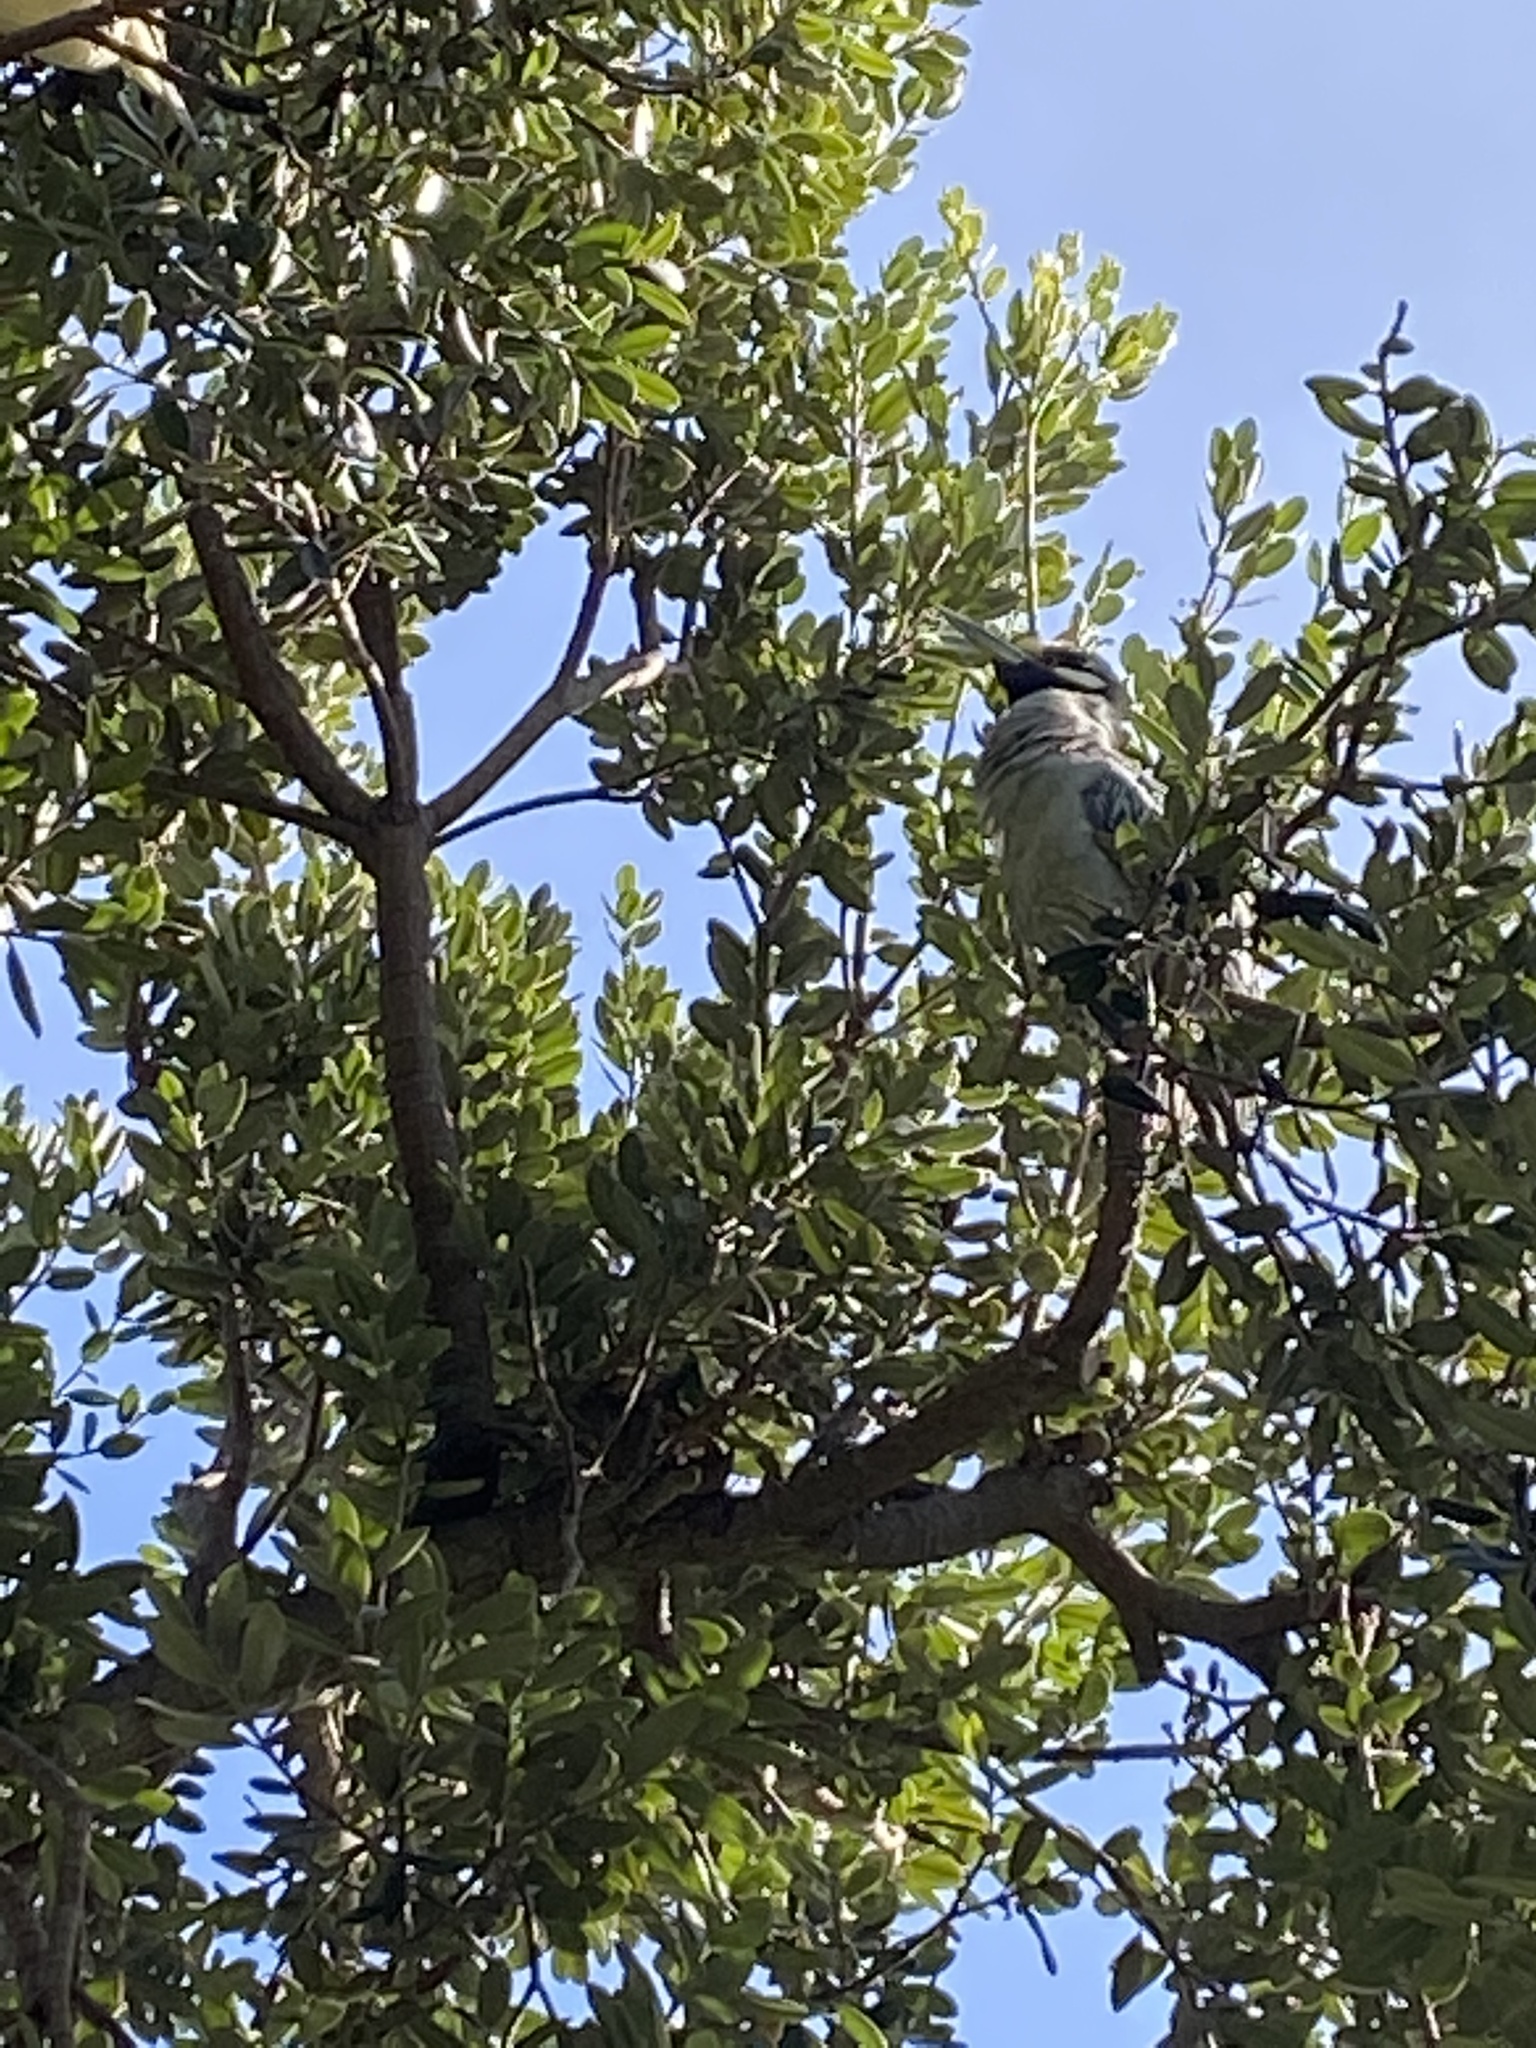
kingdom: Animalia
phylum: Chordata
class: Aves
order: Pelecaniformes
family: Ardeidae
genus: Nyctanassa
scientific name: Nyctanassa violacea
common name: Yellow-crowned night heron
